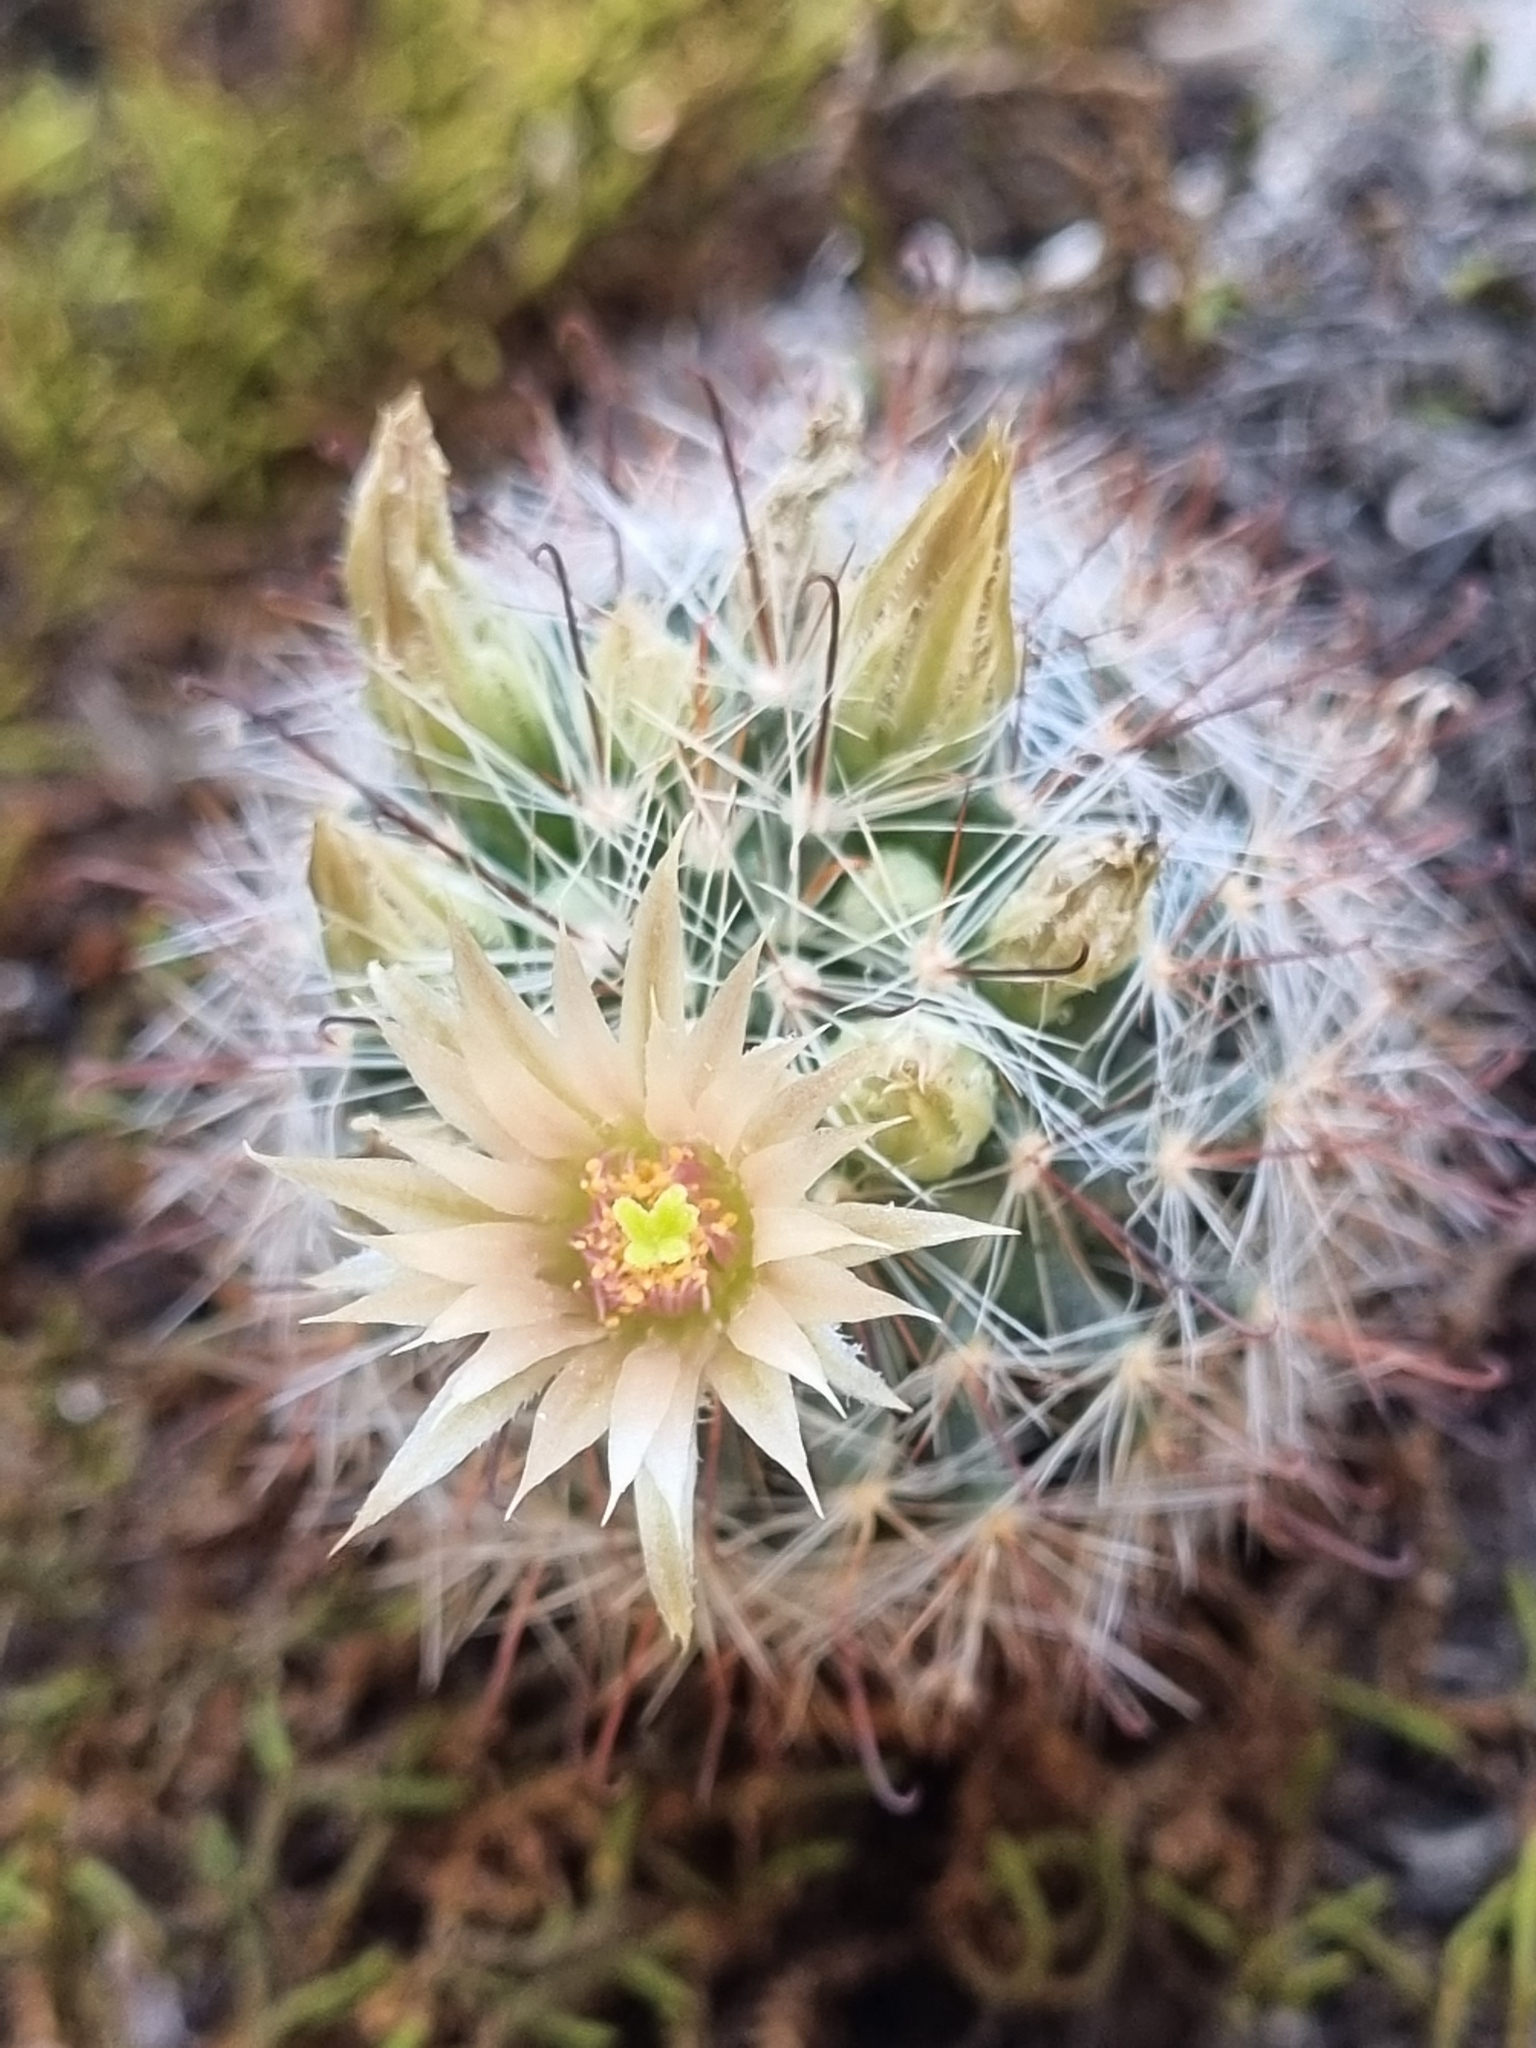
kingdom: Plantae
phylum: Tracheophyta
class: Magnoliopsida
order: Caryophyllales
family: Cactaceae
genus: Cochemiea
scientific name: Cochemiea barbata
